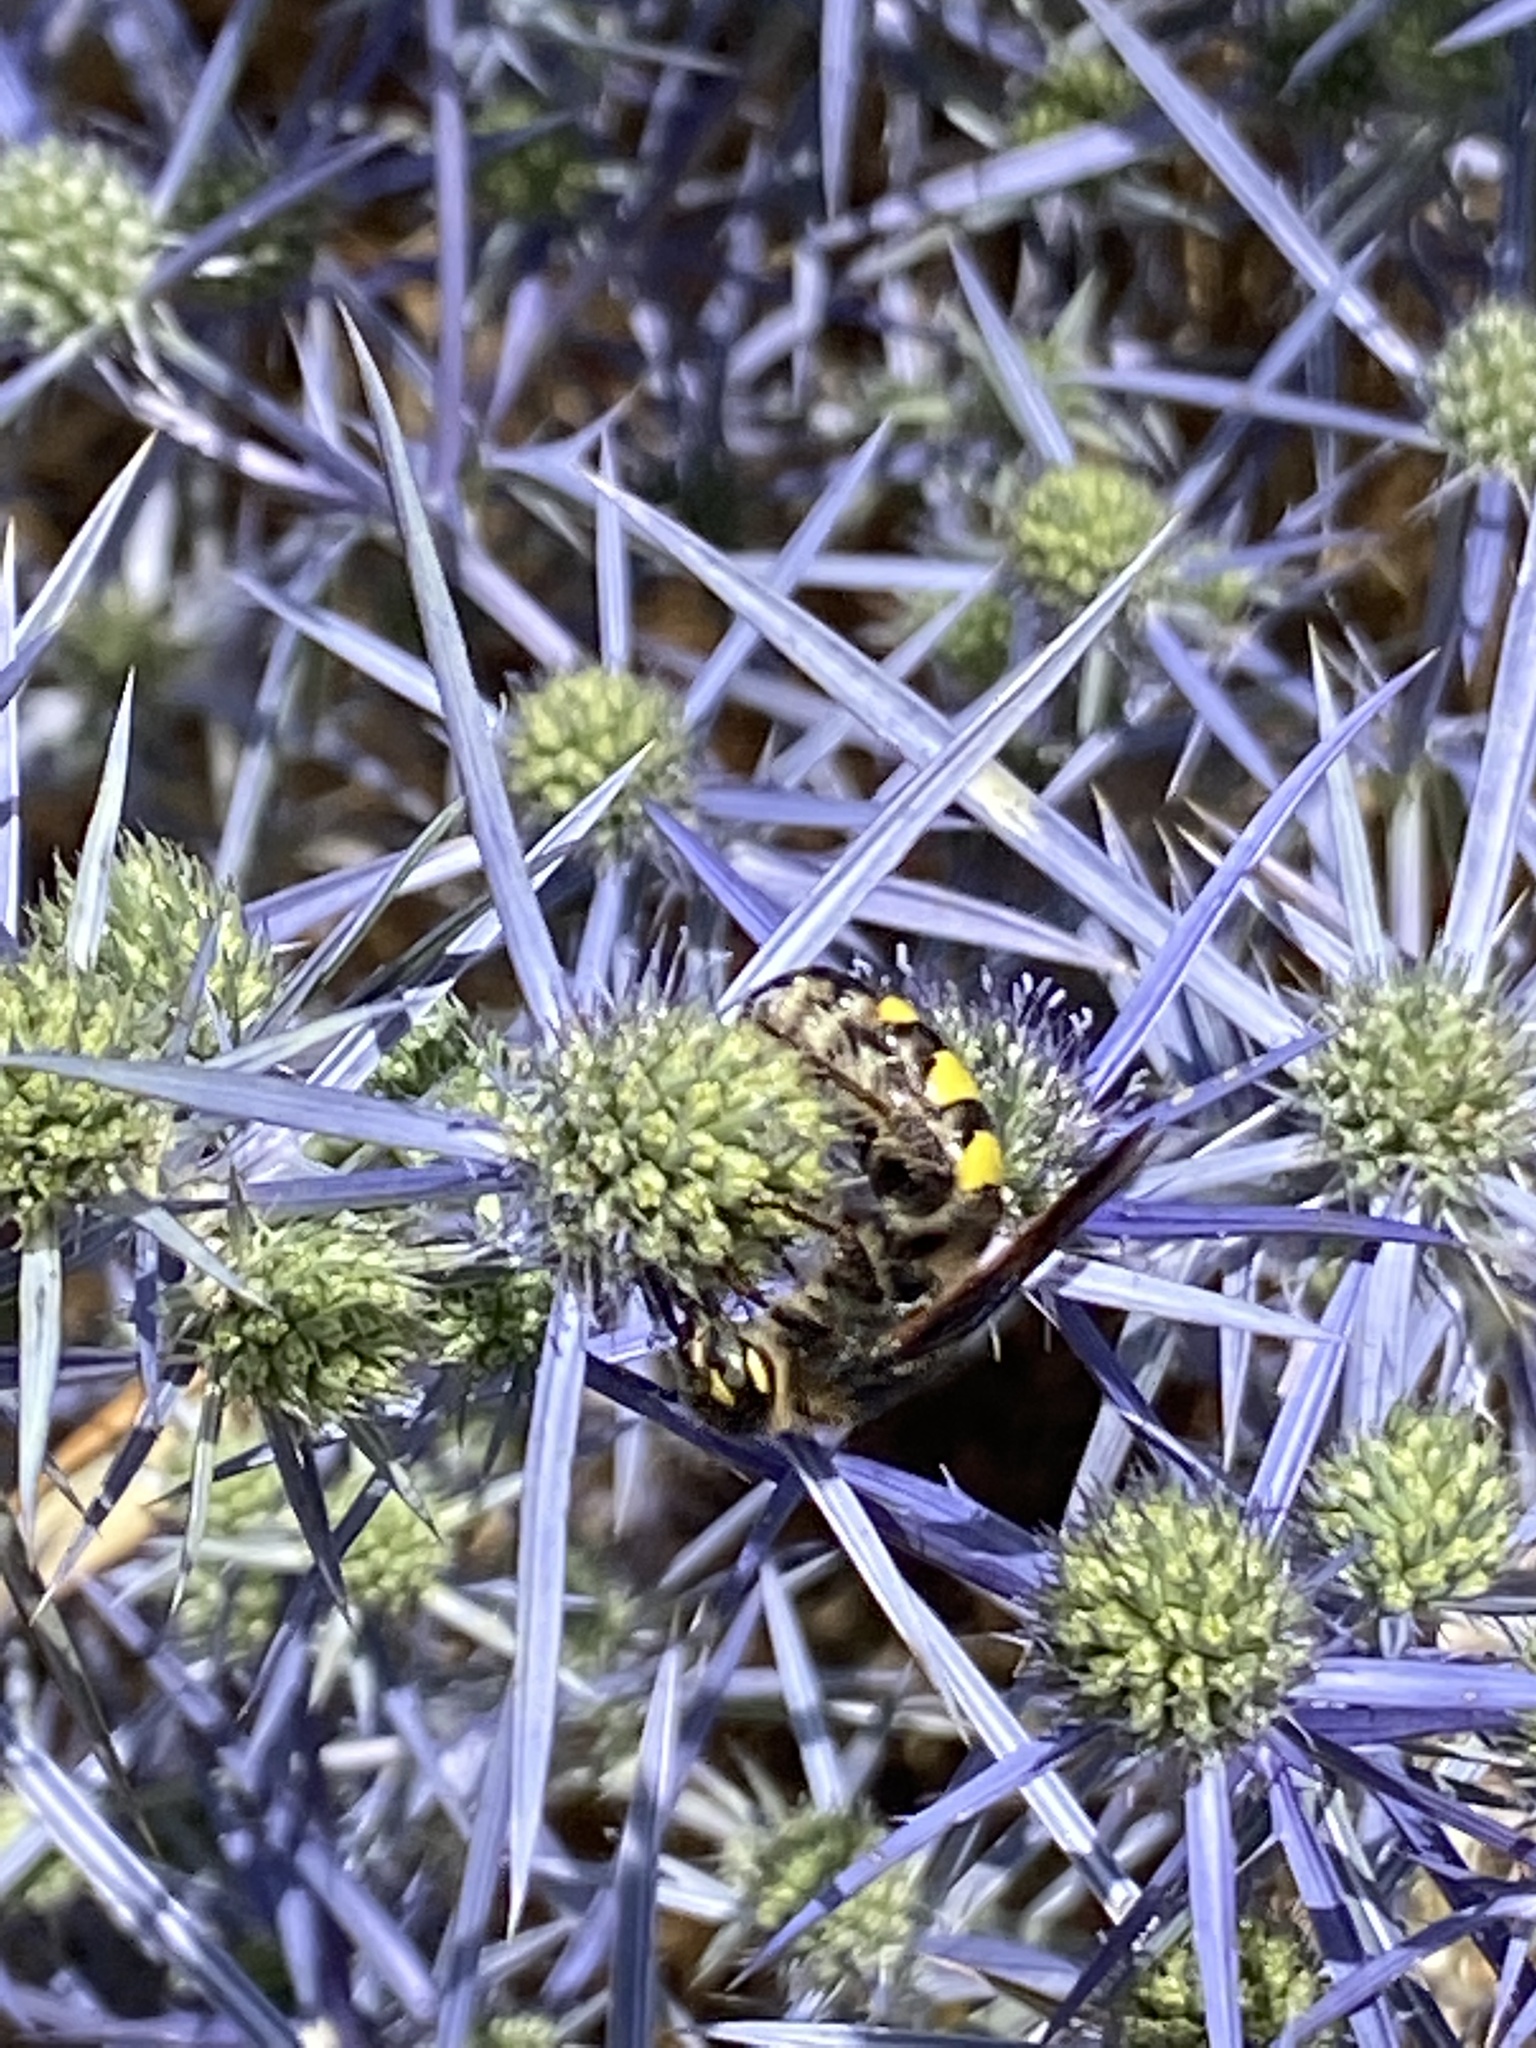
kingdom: Animalia
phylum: Arthropoda
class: Insecta
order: Hymenoptera
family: Vespidae
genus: Vespa
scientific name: Vespa sexmaculata
